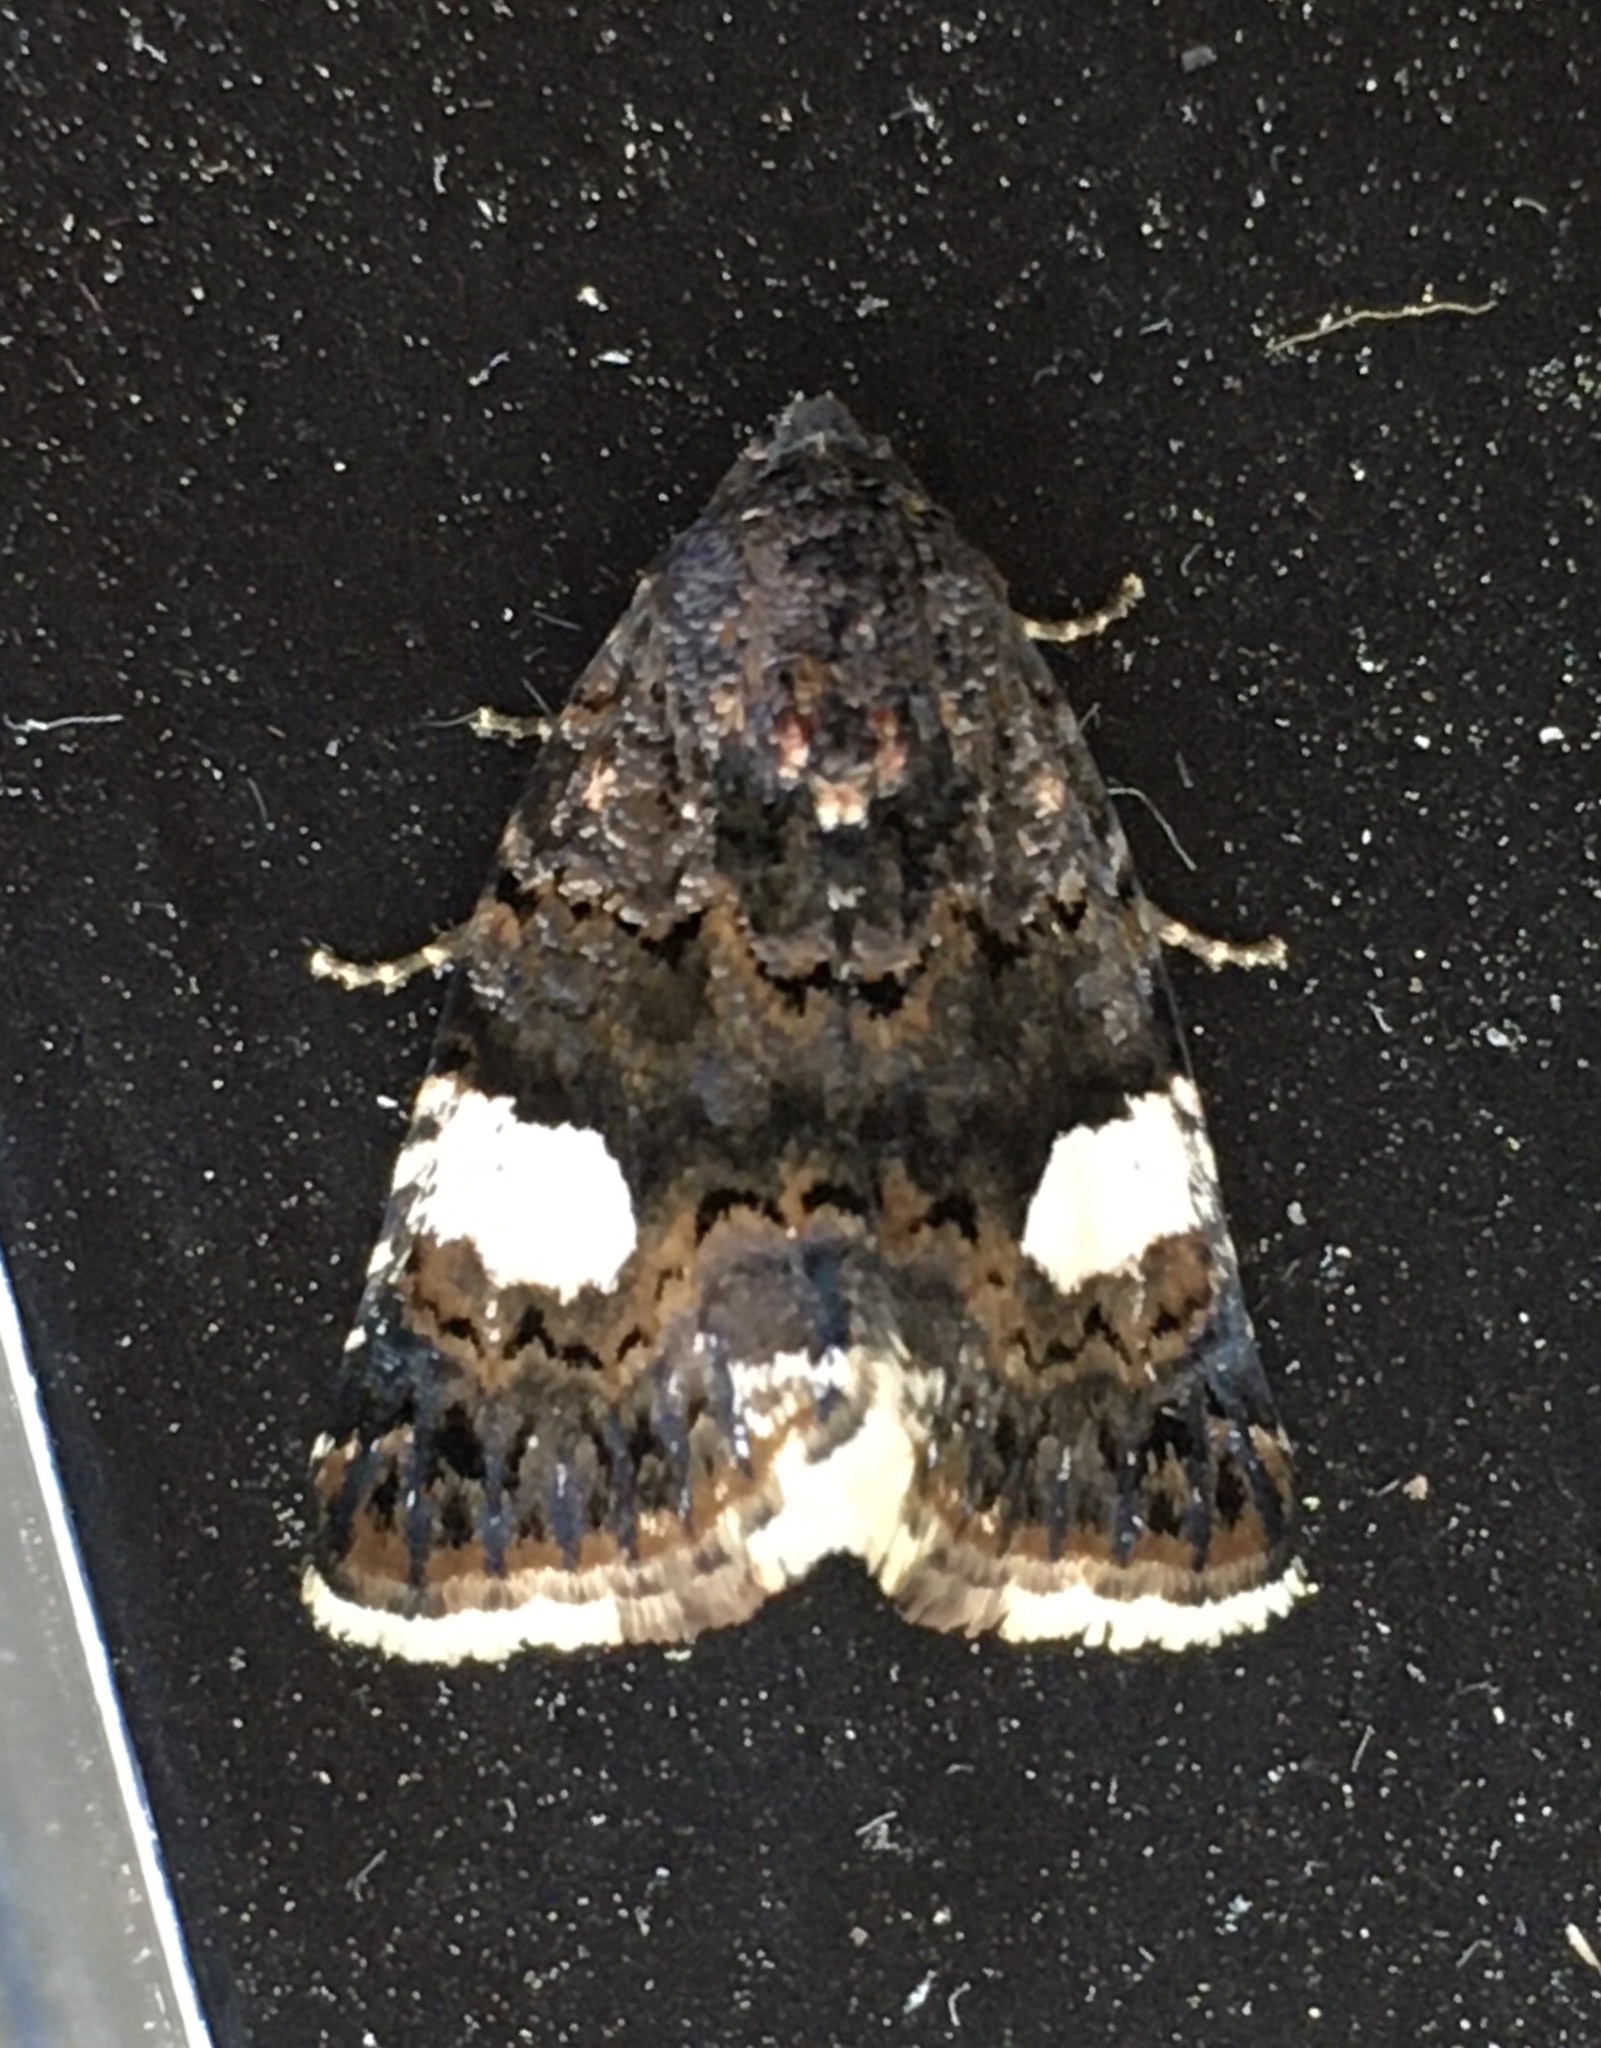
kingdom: Animalia
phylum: Arthropoda
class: Insecta
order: Lepidoptera
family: Erebidae
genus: Tyta
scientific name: Tyta luctuosa
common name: Four-spotted
